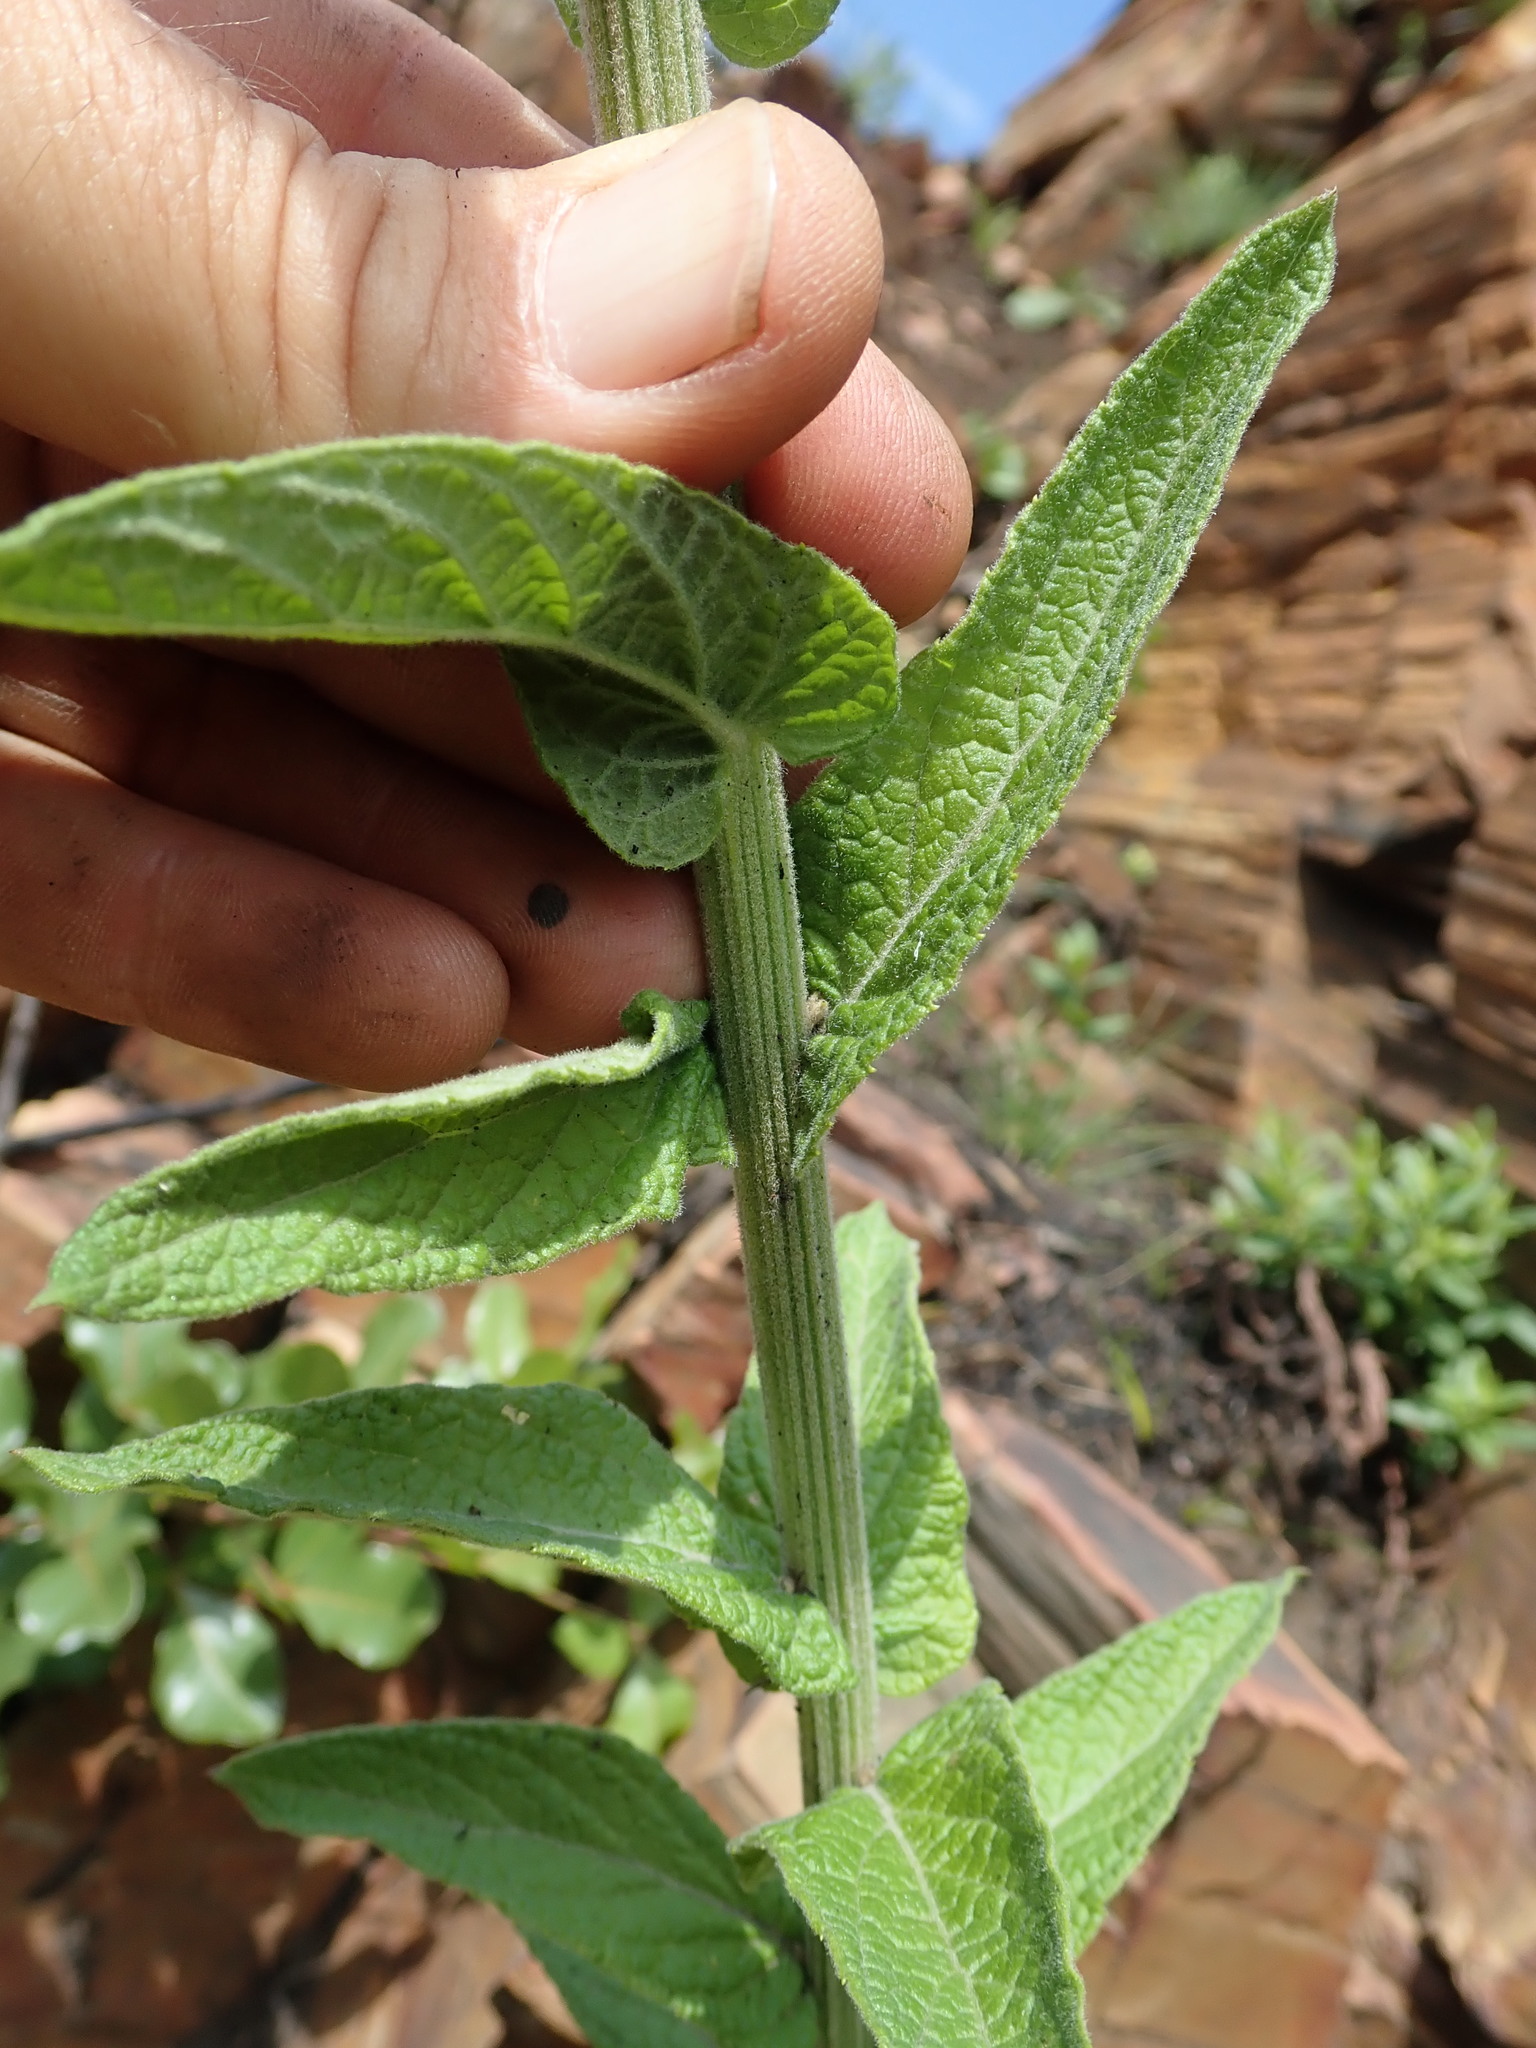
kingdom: Plantae
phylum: Tracheophyta
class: Magnoliopsida
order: Asterales
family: Asteraceae
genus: Hilliardiella
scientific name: Hilliardiella hirsuta
